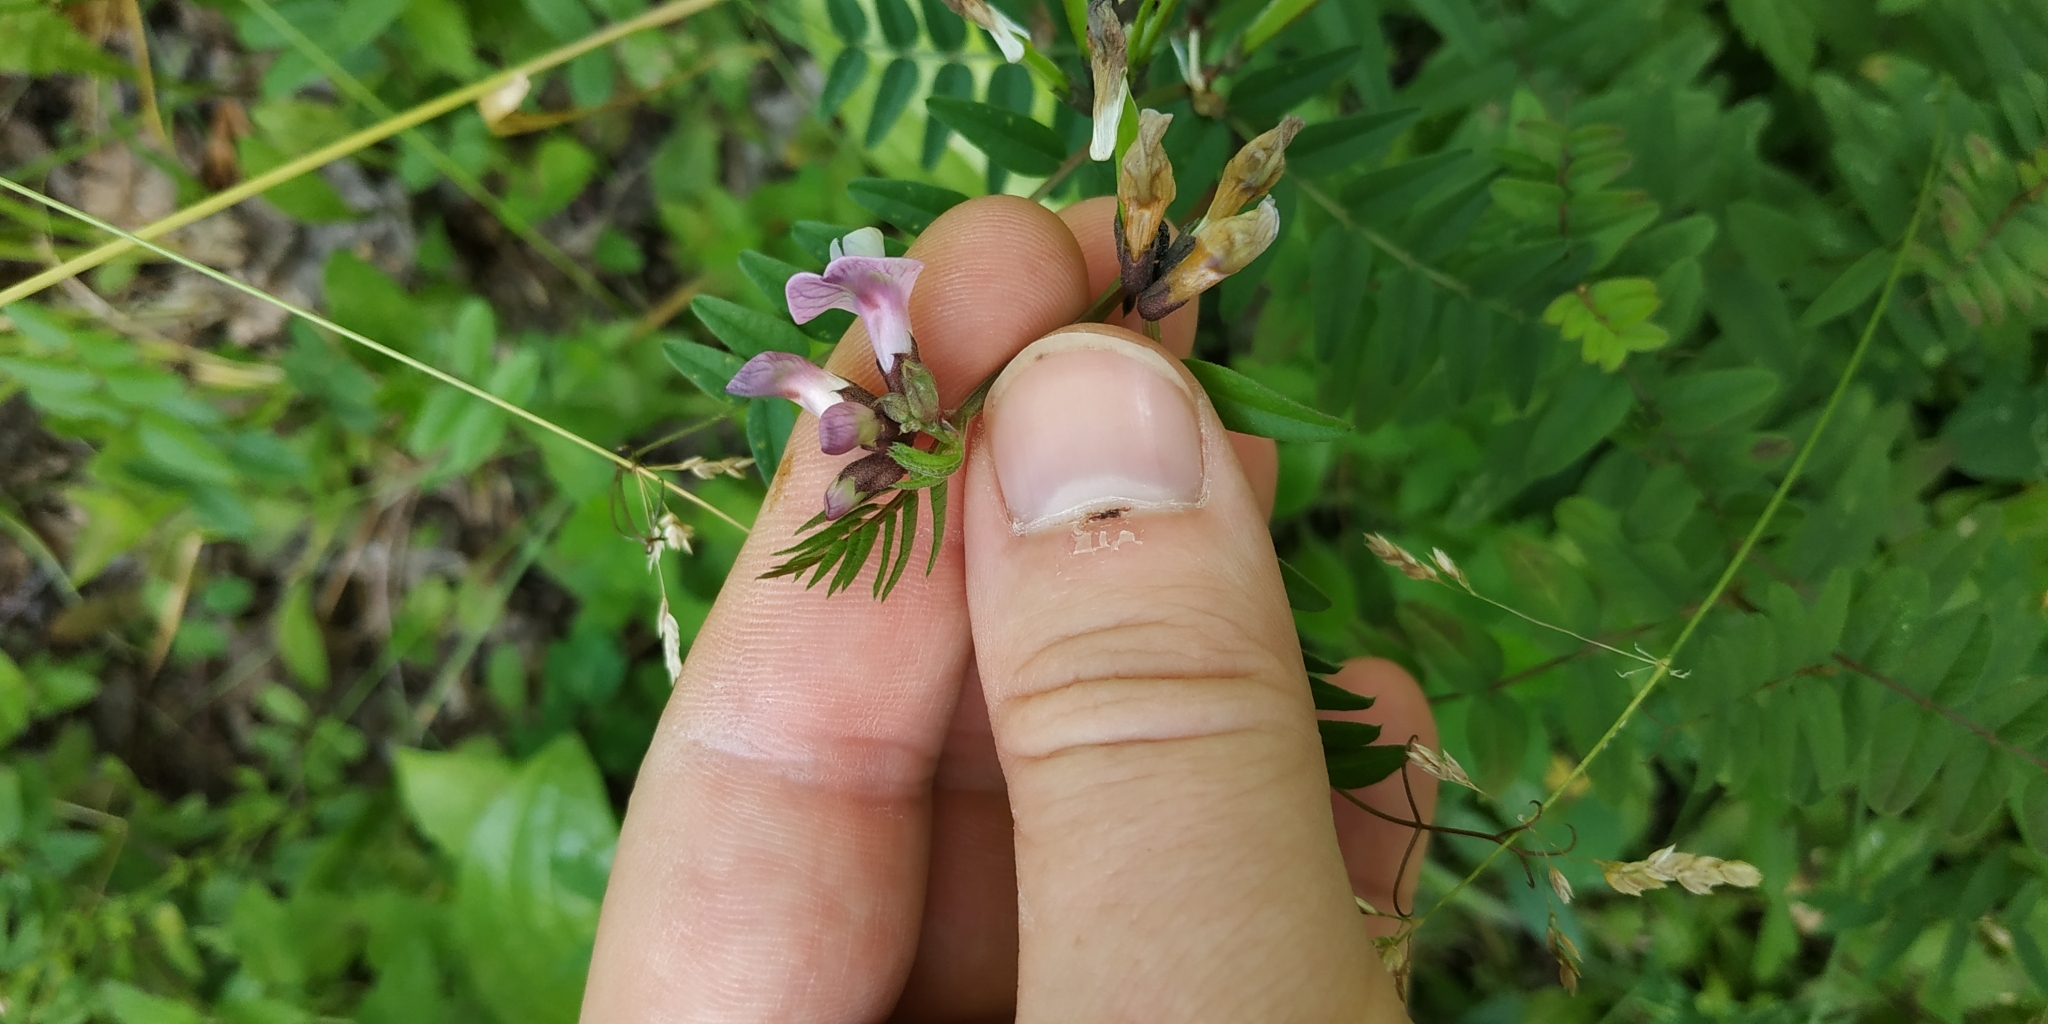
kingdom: Plantae
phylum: Tracheophyta
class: Magnoliopsida
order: Fabales
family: Fabaceae
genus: Vicia
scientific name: Vicia sepium
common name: Bush vetch
